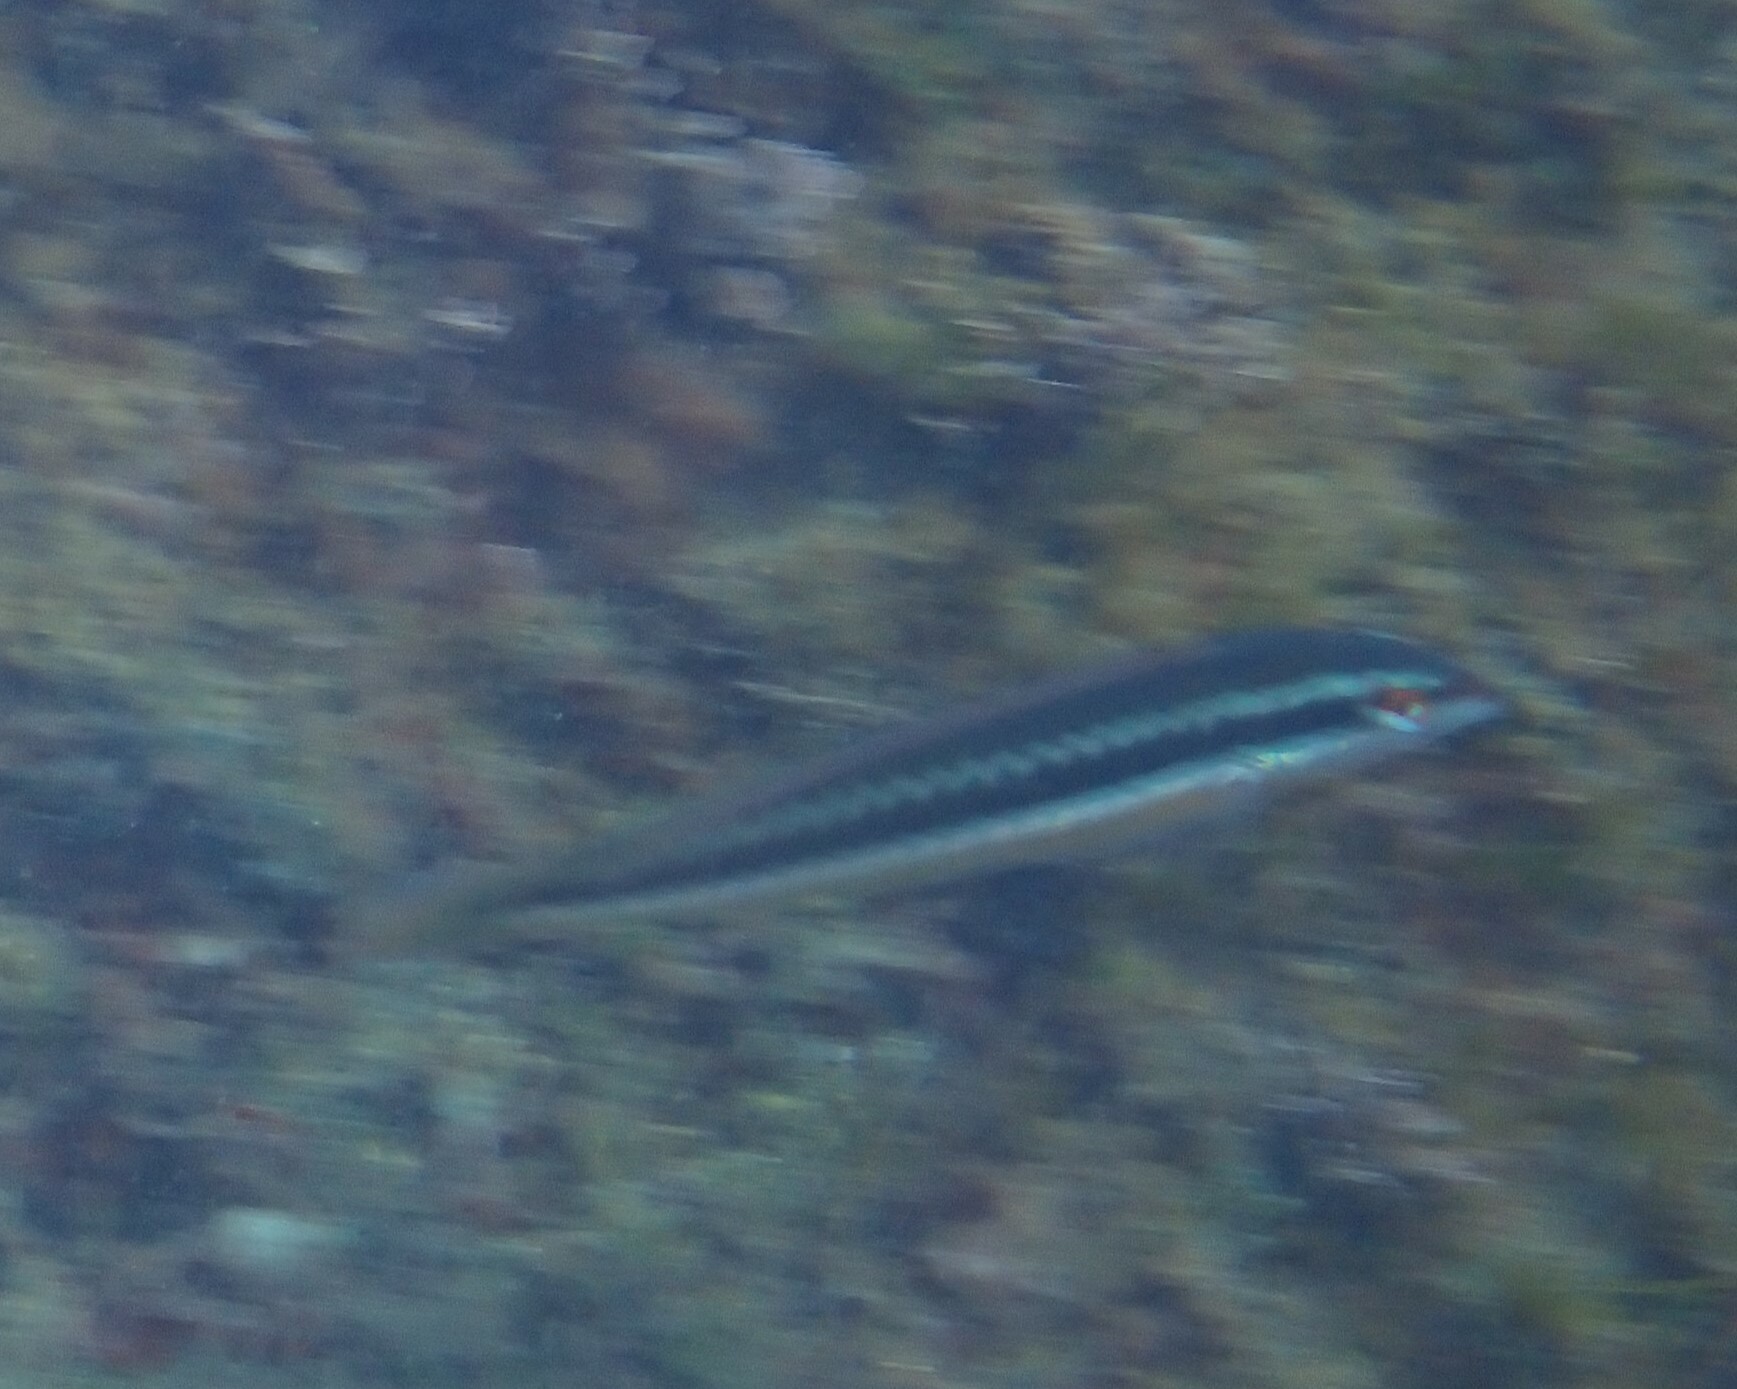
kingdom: Animalia
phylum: Chordata
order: Perciformes
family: Labridae
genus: Coris
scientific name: Coris julis
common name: Rainbow wrasse
